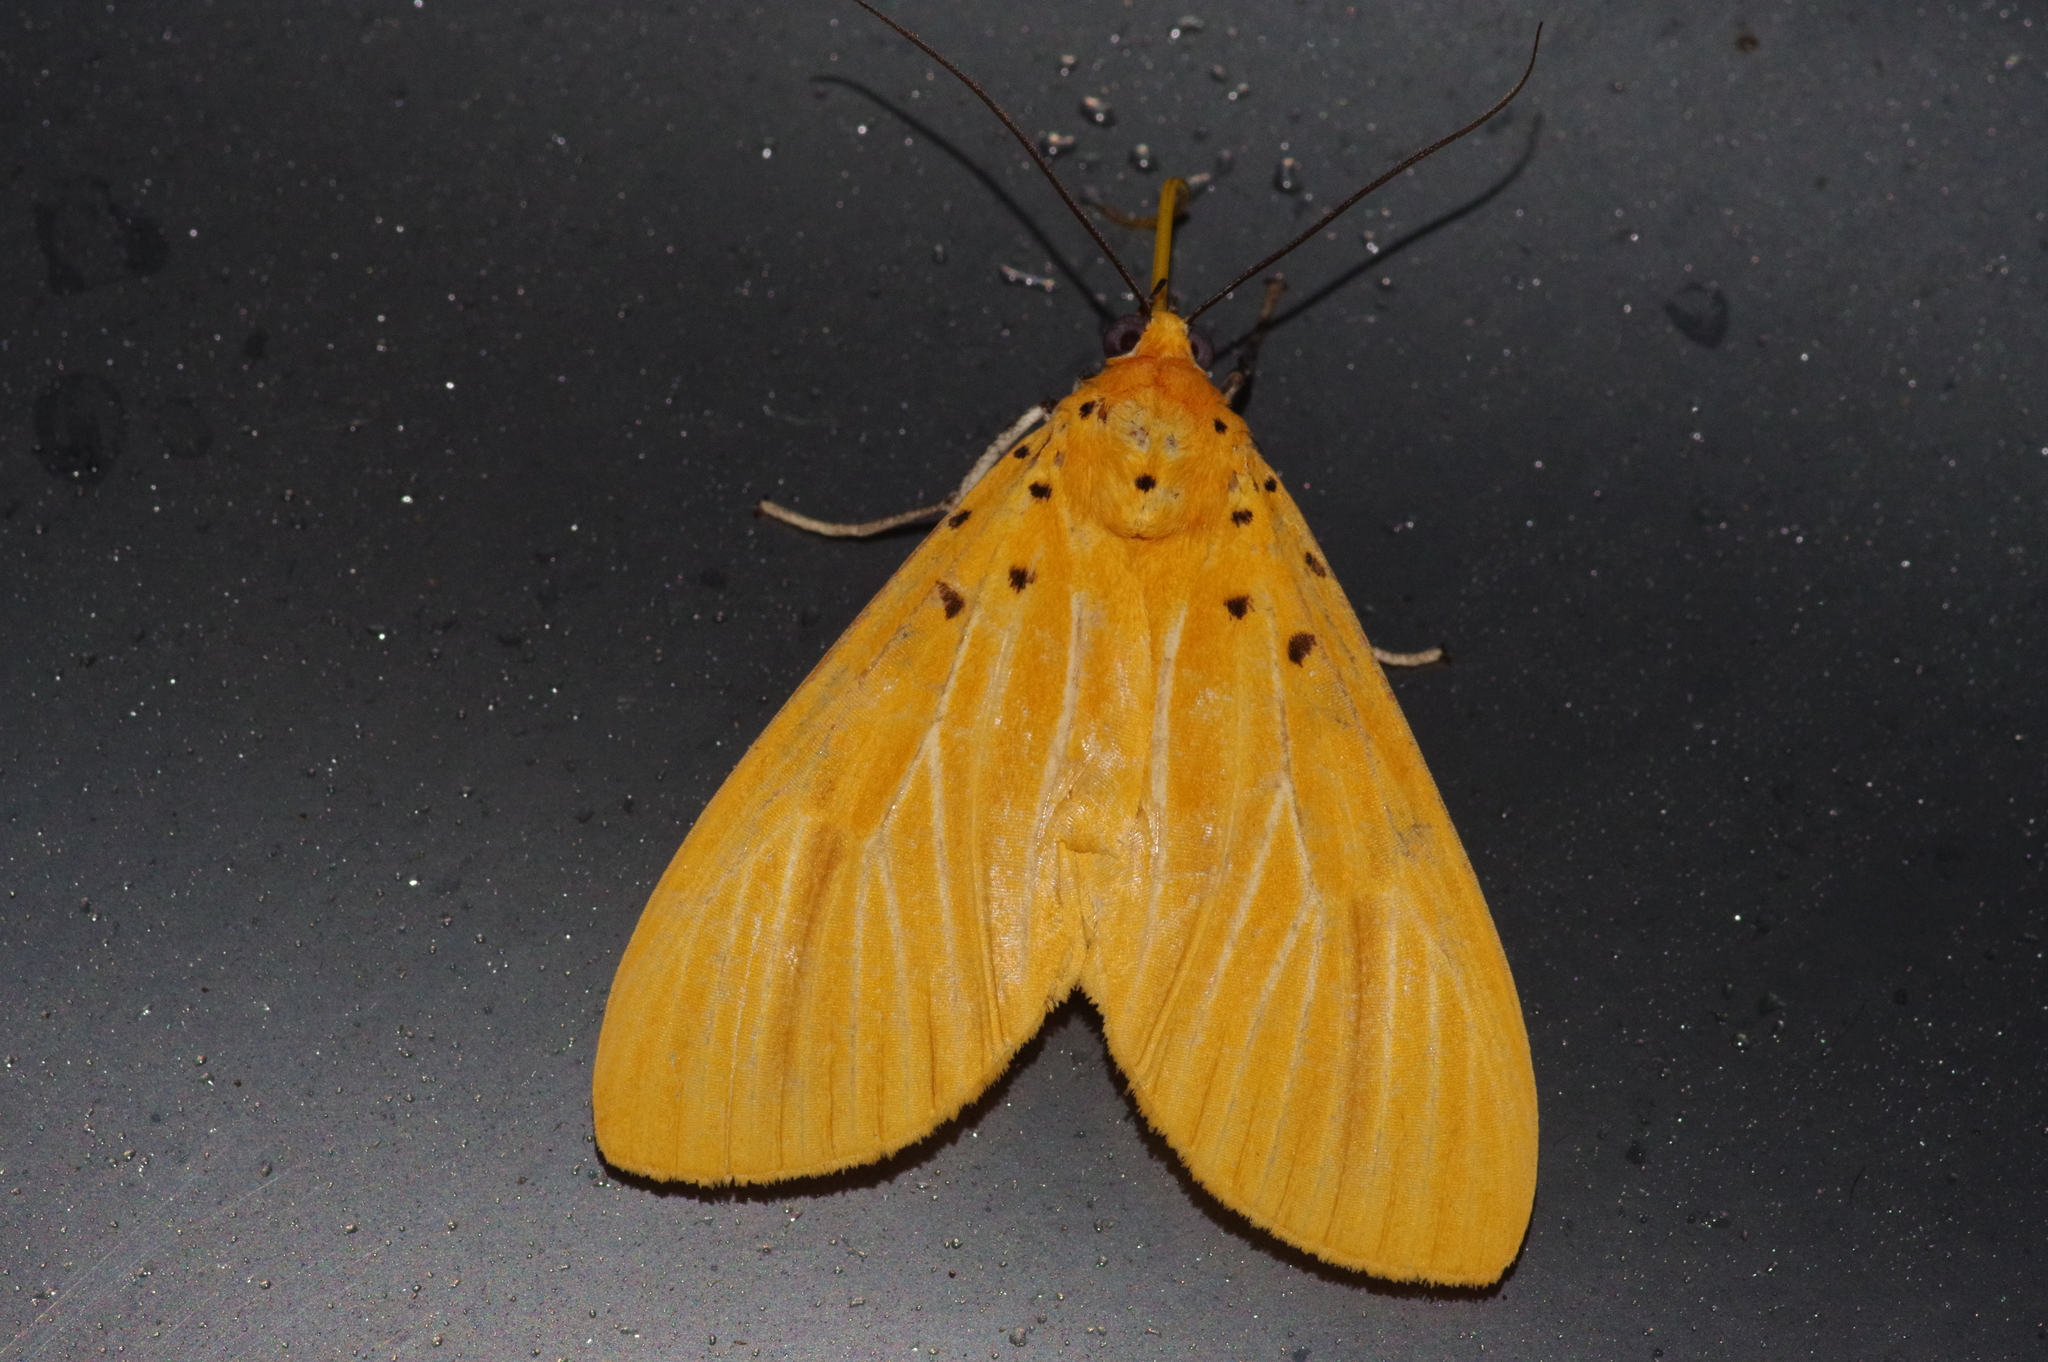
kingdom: Animalia
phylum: Arthropoda
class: Insecta
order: Lepidoptera
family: Erebidae
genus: Asota
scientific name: Asota egens
